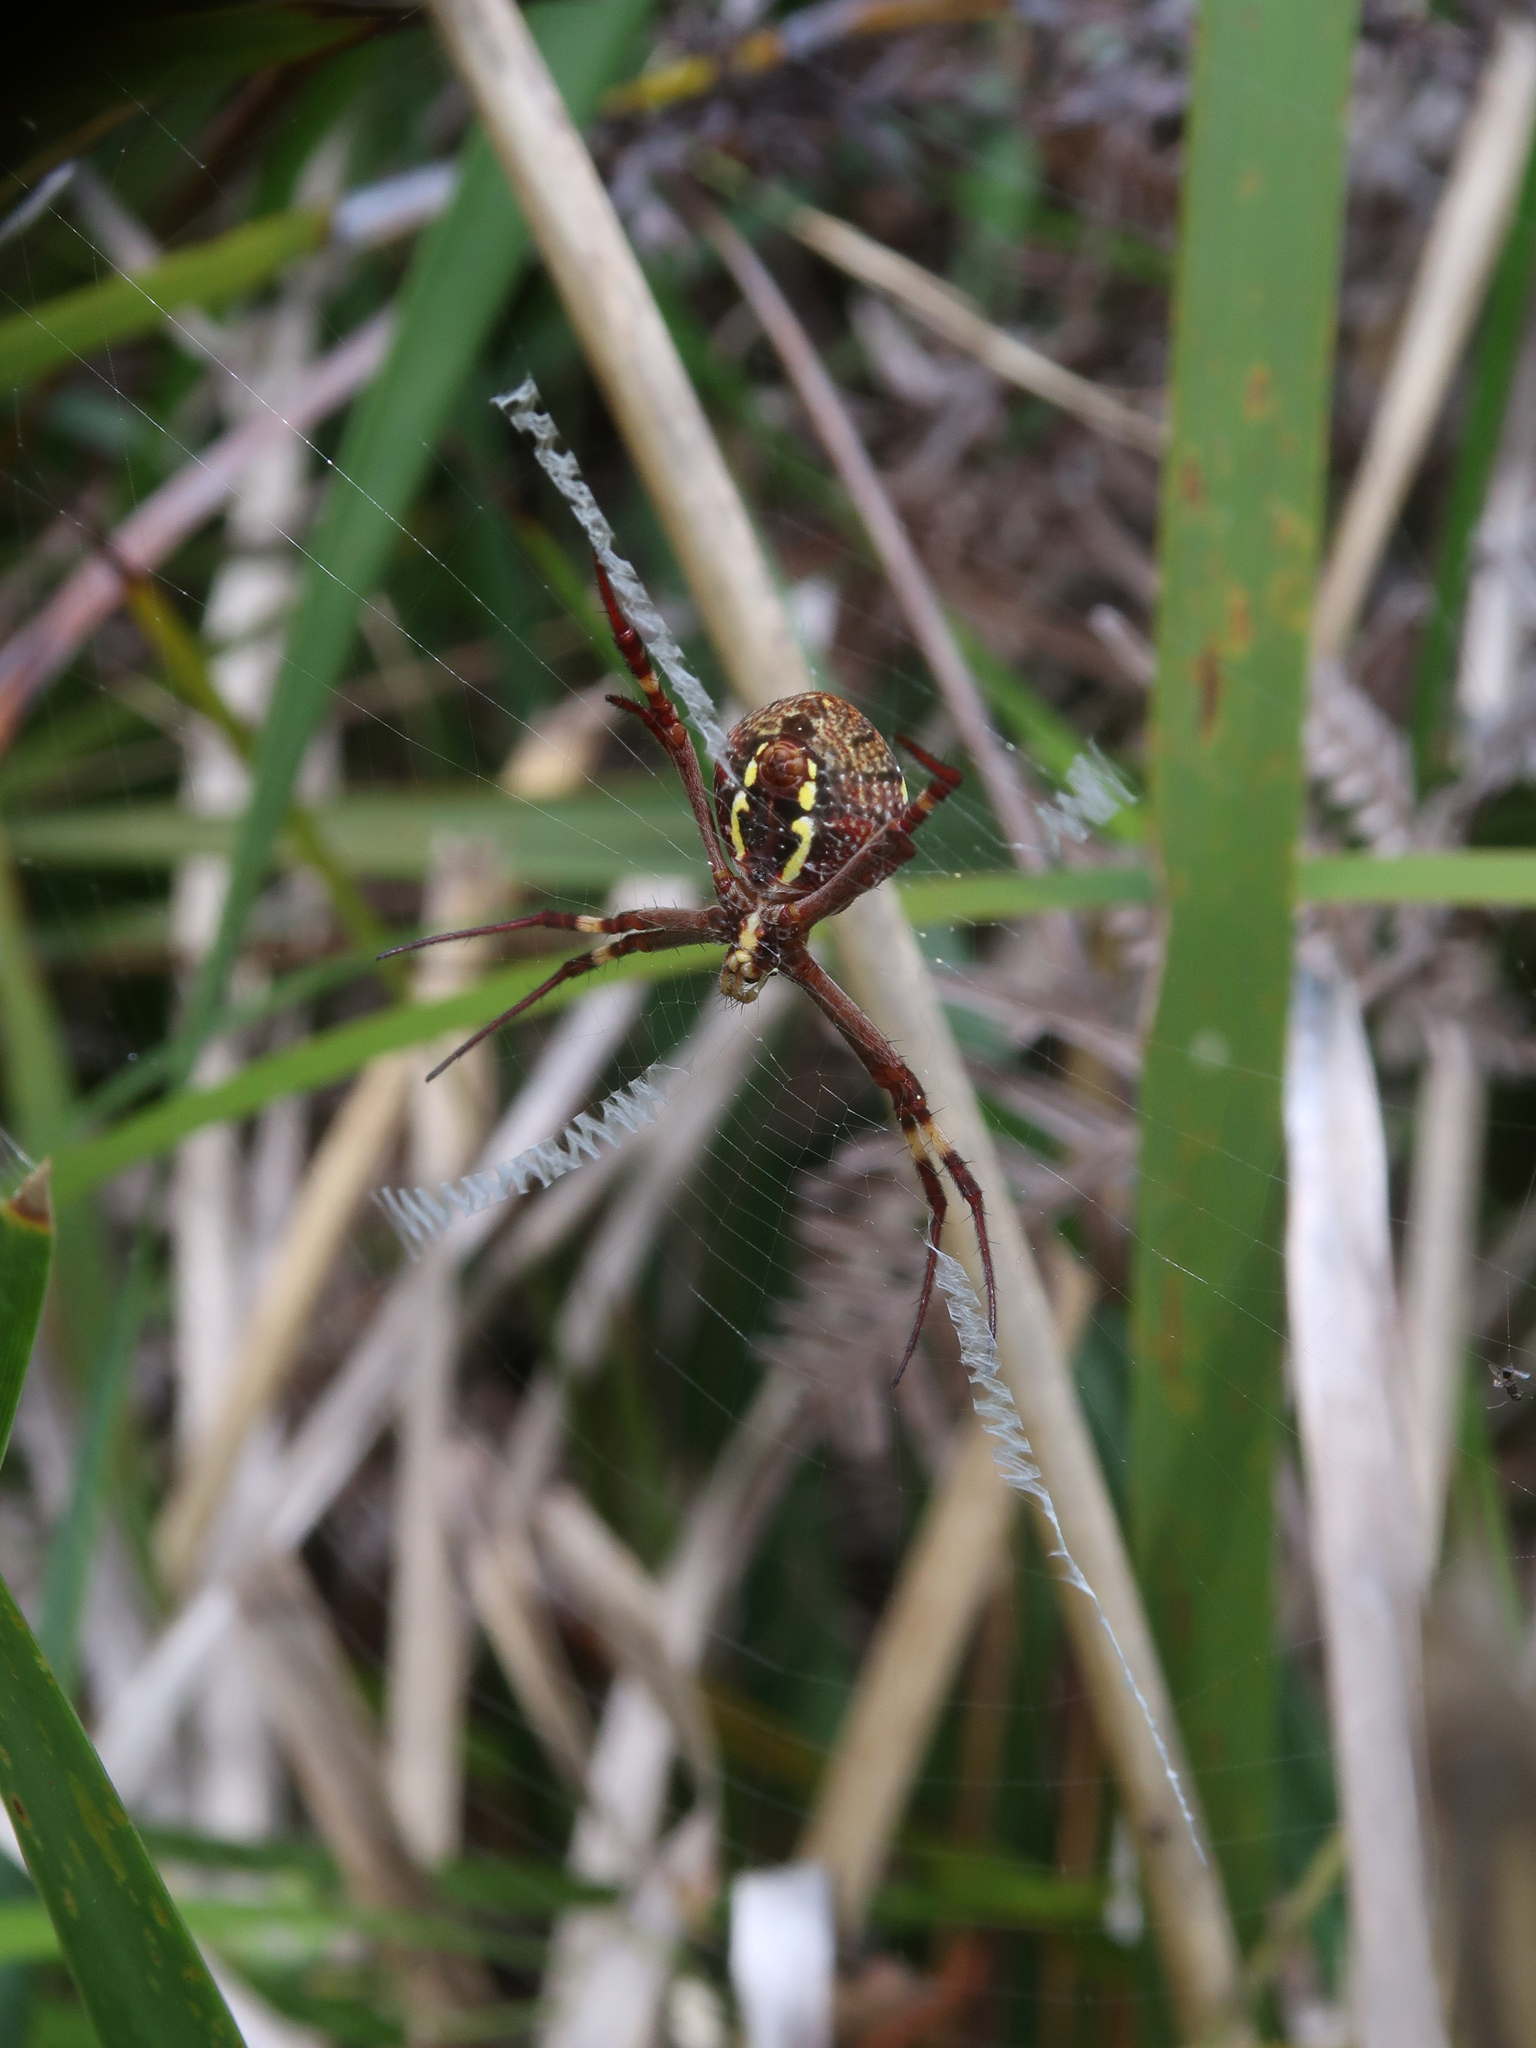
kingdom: Animalia
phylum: Arthropoda
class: Arachnida
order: Araneae
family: Araneidae
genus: Argiope
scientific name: Argiope keyserlingi
